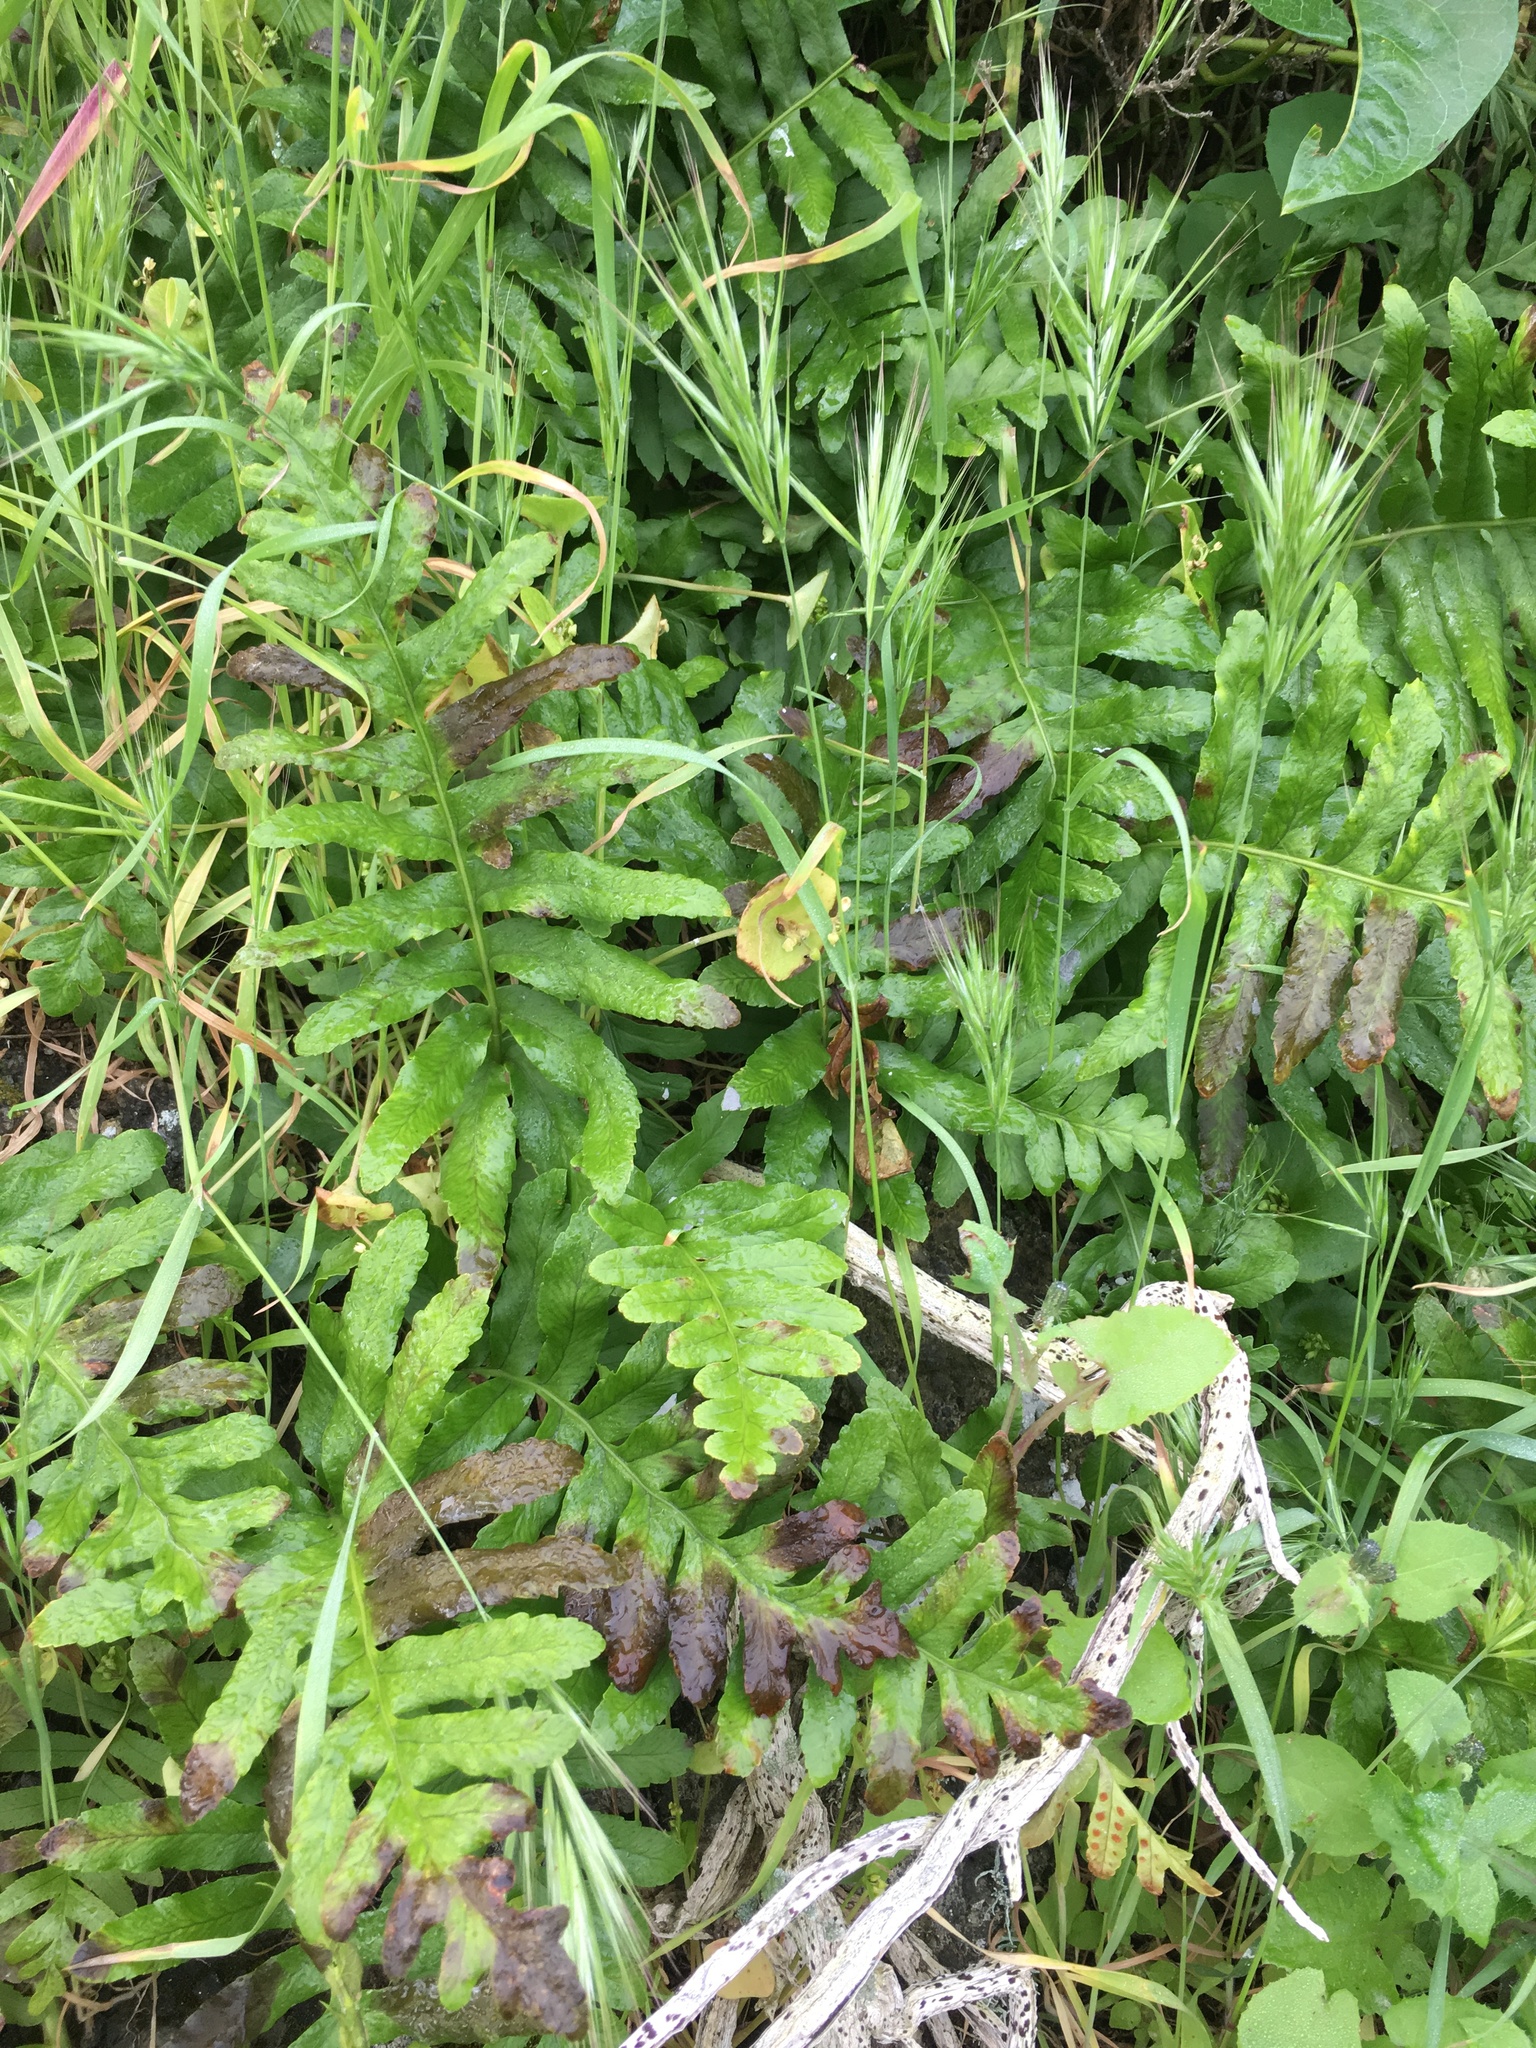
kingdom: Plantae
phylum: Tracheophyta
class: Polypodiopsida
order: Polypodiales
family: Polypodiaceae
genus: Polypodium
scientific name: Polypodium californicum
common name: California polypody
